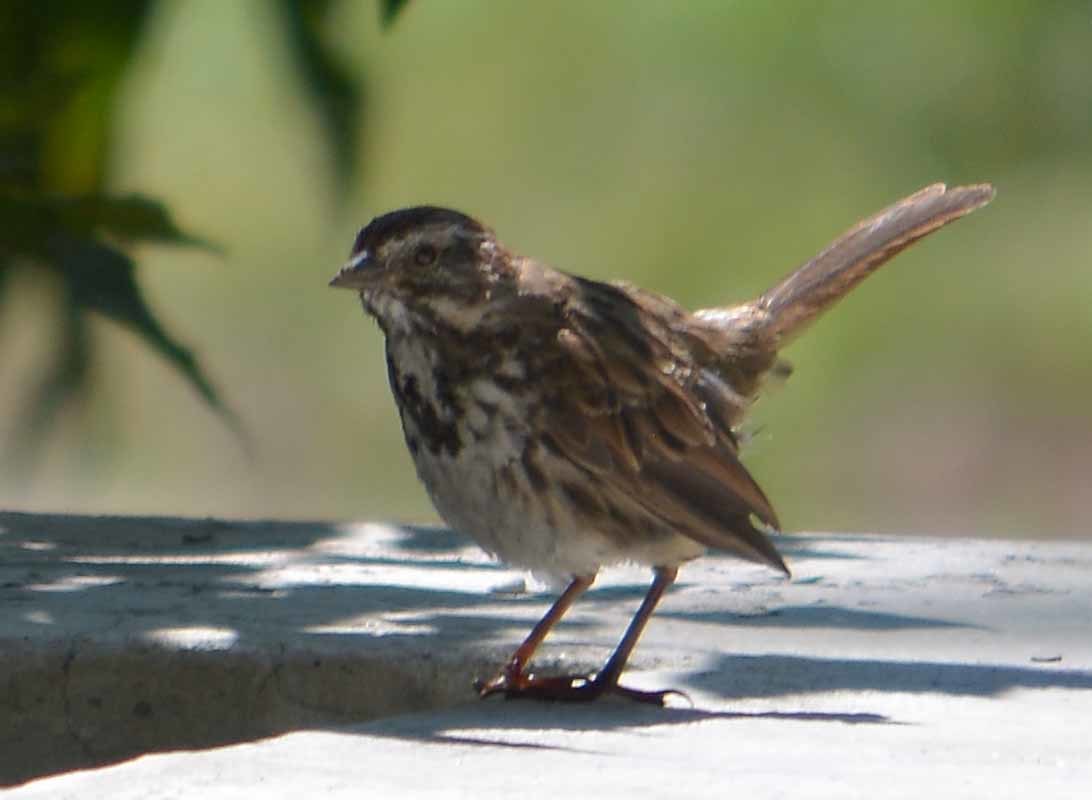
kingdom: Animalia
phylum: Chordata
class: Aves
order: Passeriformes
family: Passerellidae
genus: Melospiza
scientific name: Melospiza melodia
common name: Song sparrow
